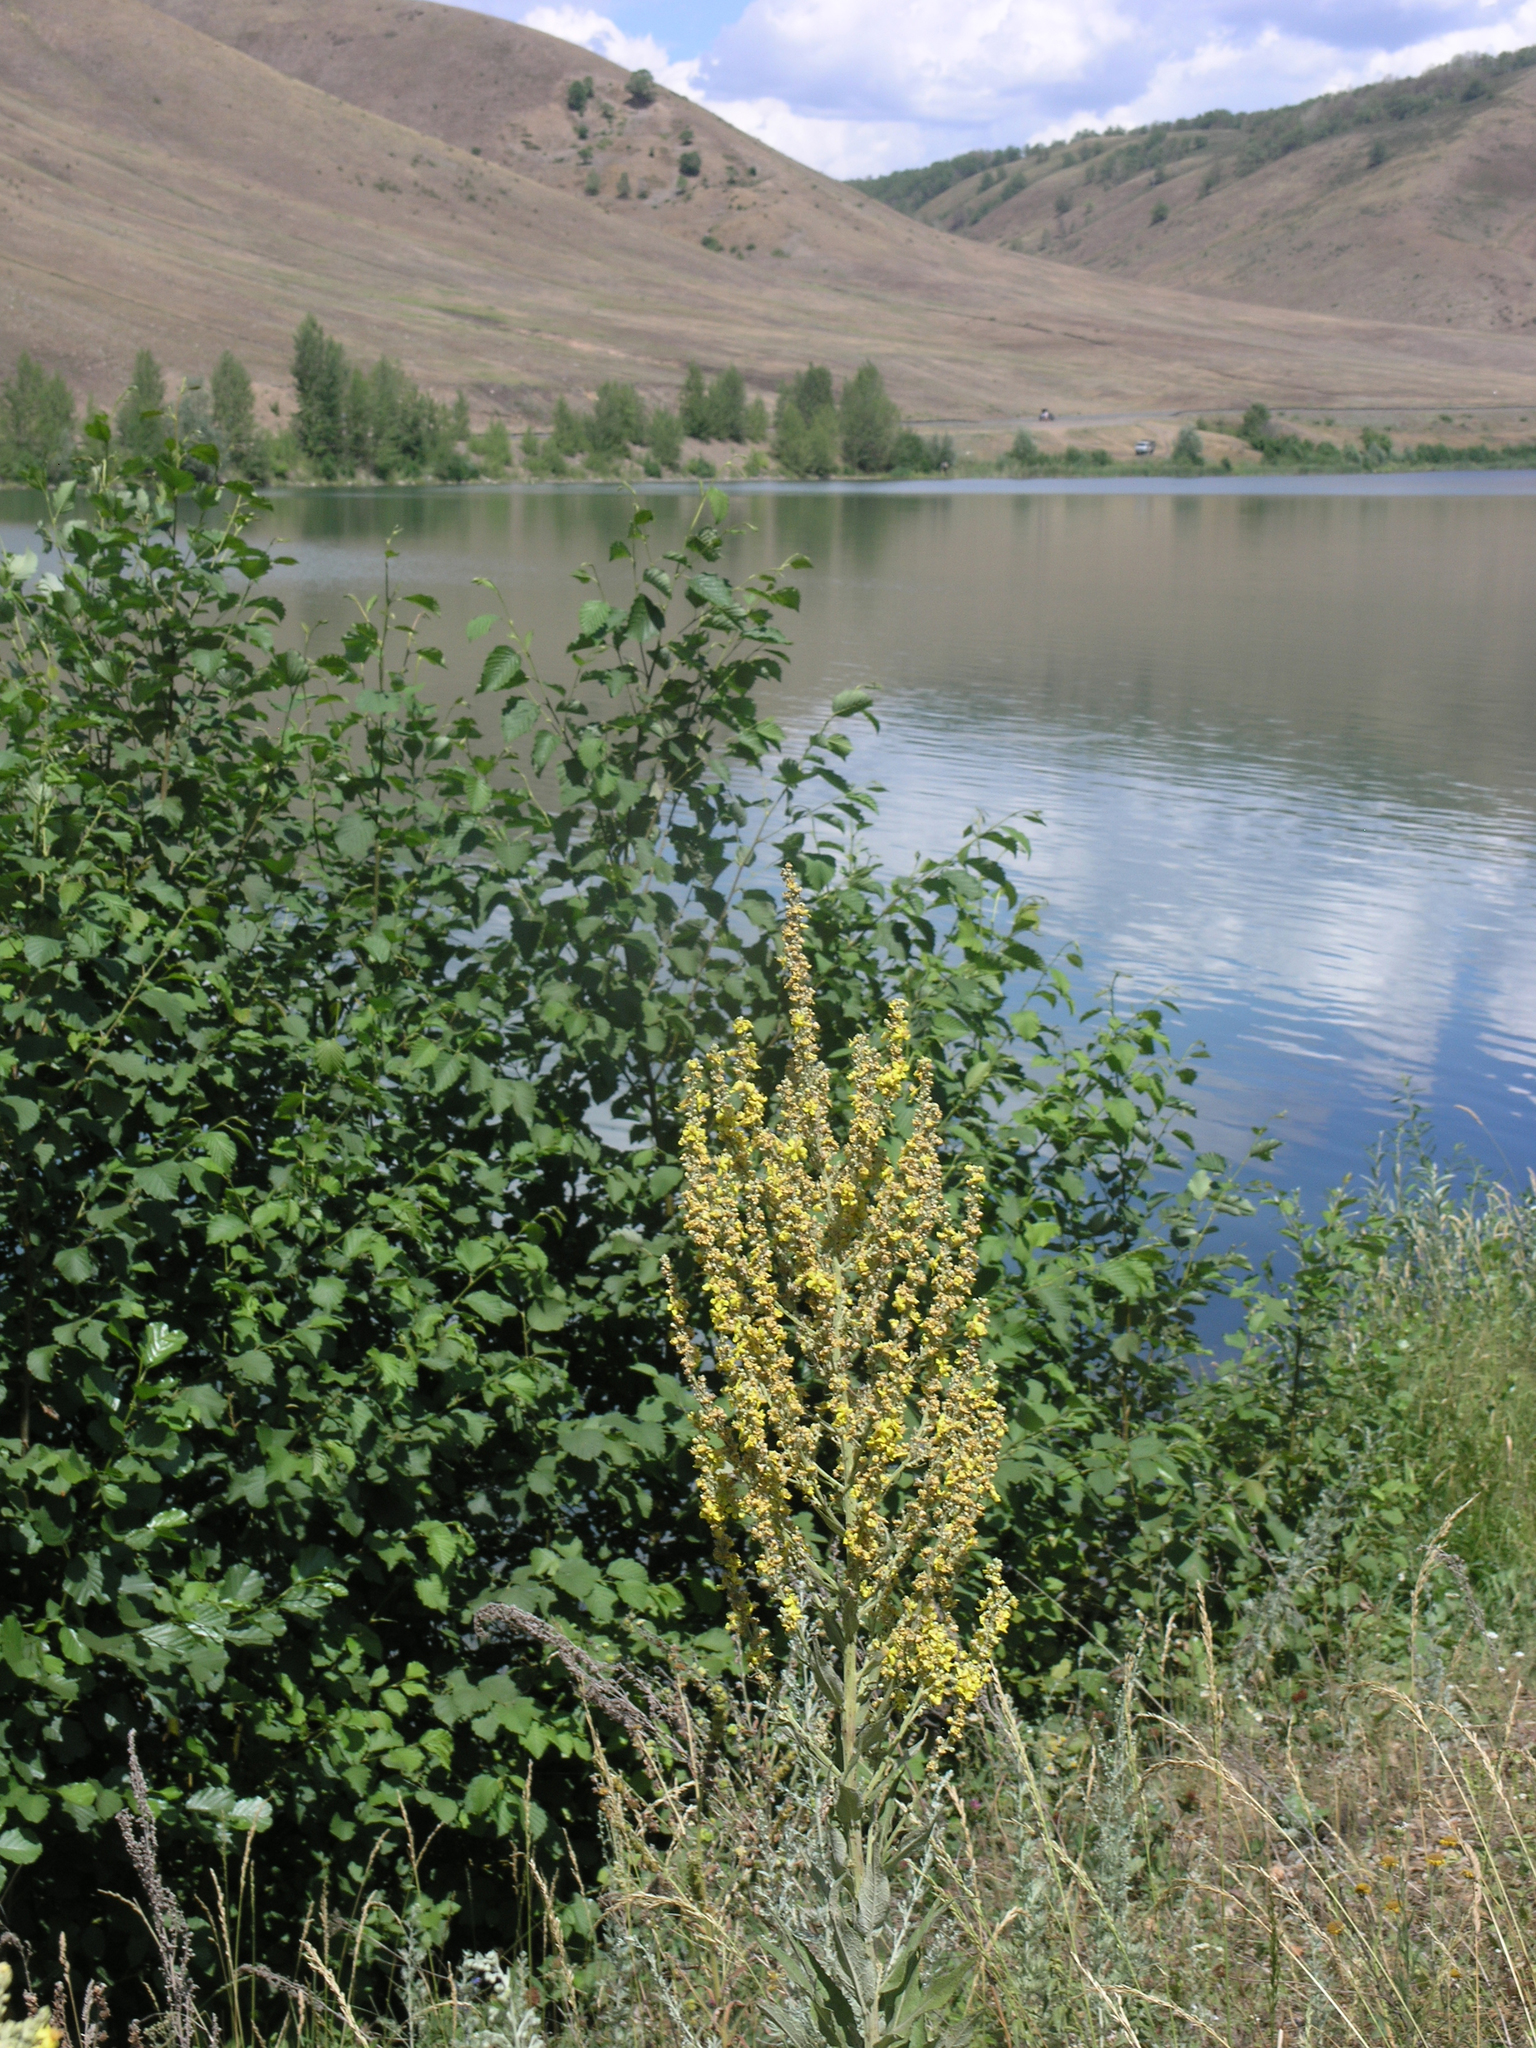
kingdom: Plantae
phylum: Tracheophyta
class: Magnoliopsida
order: Lamiales
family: Scrophulariaceae
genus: Verbascum
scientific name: Verbascum lychnitis
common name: White mullein
